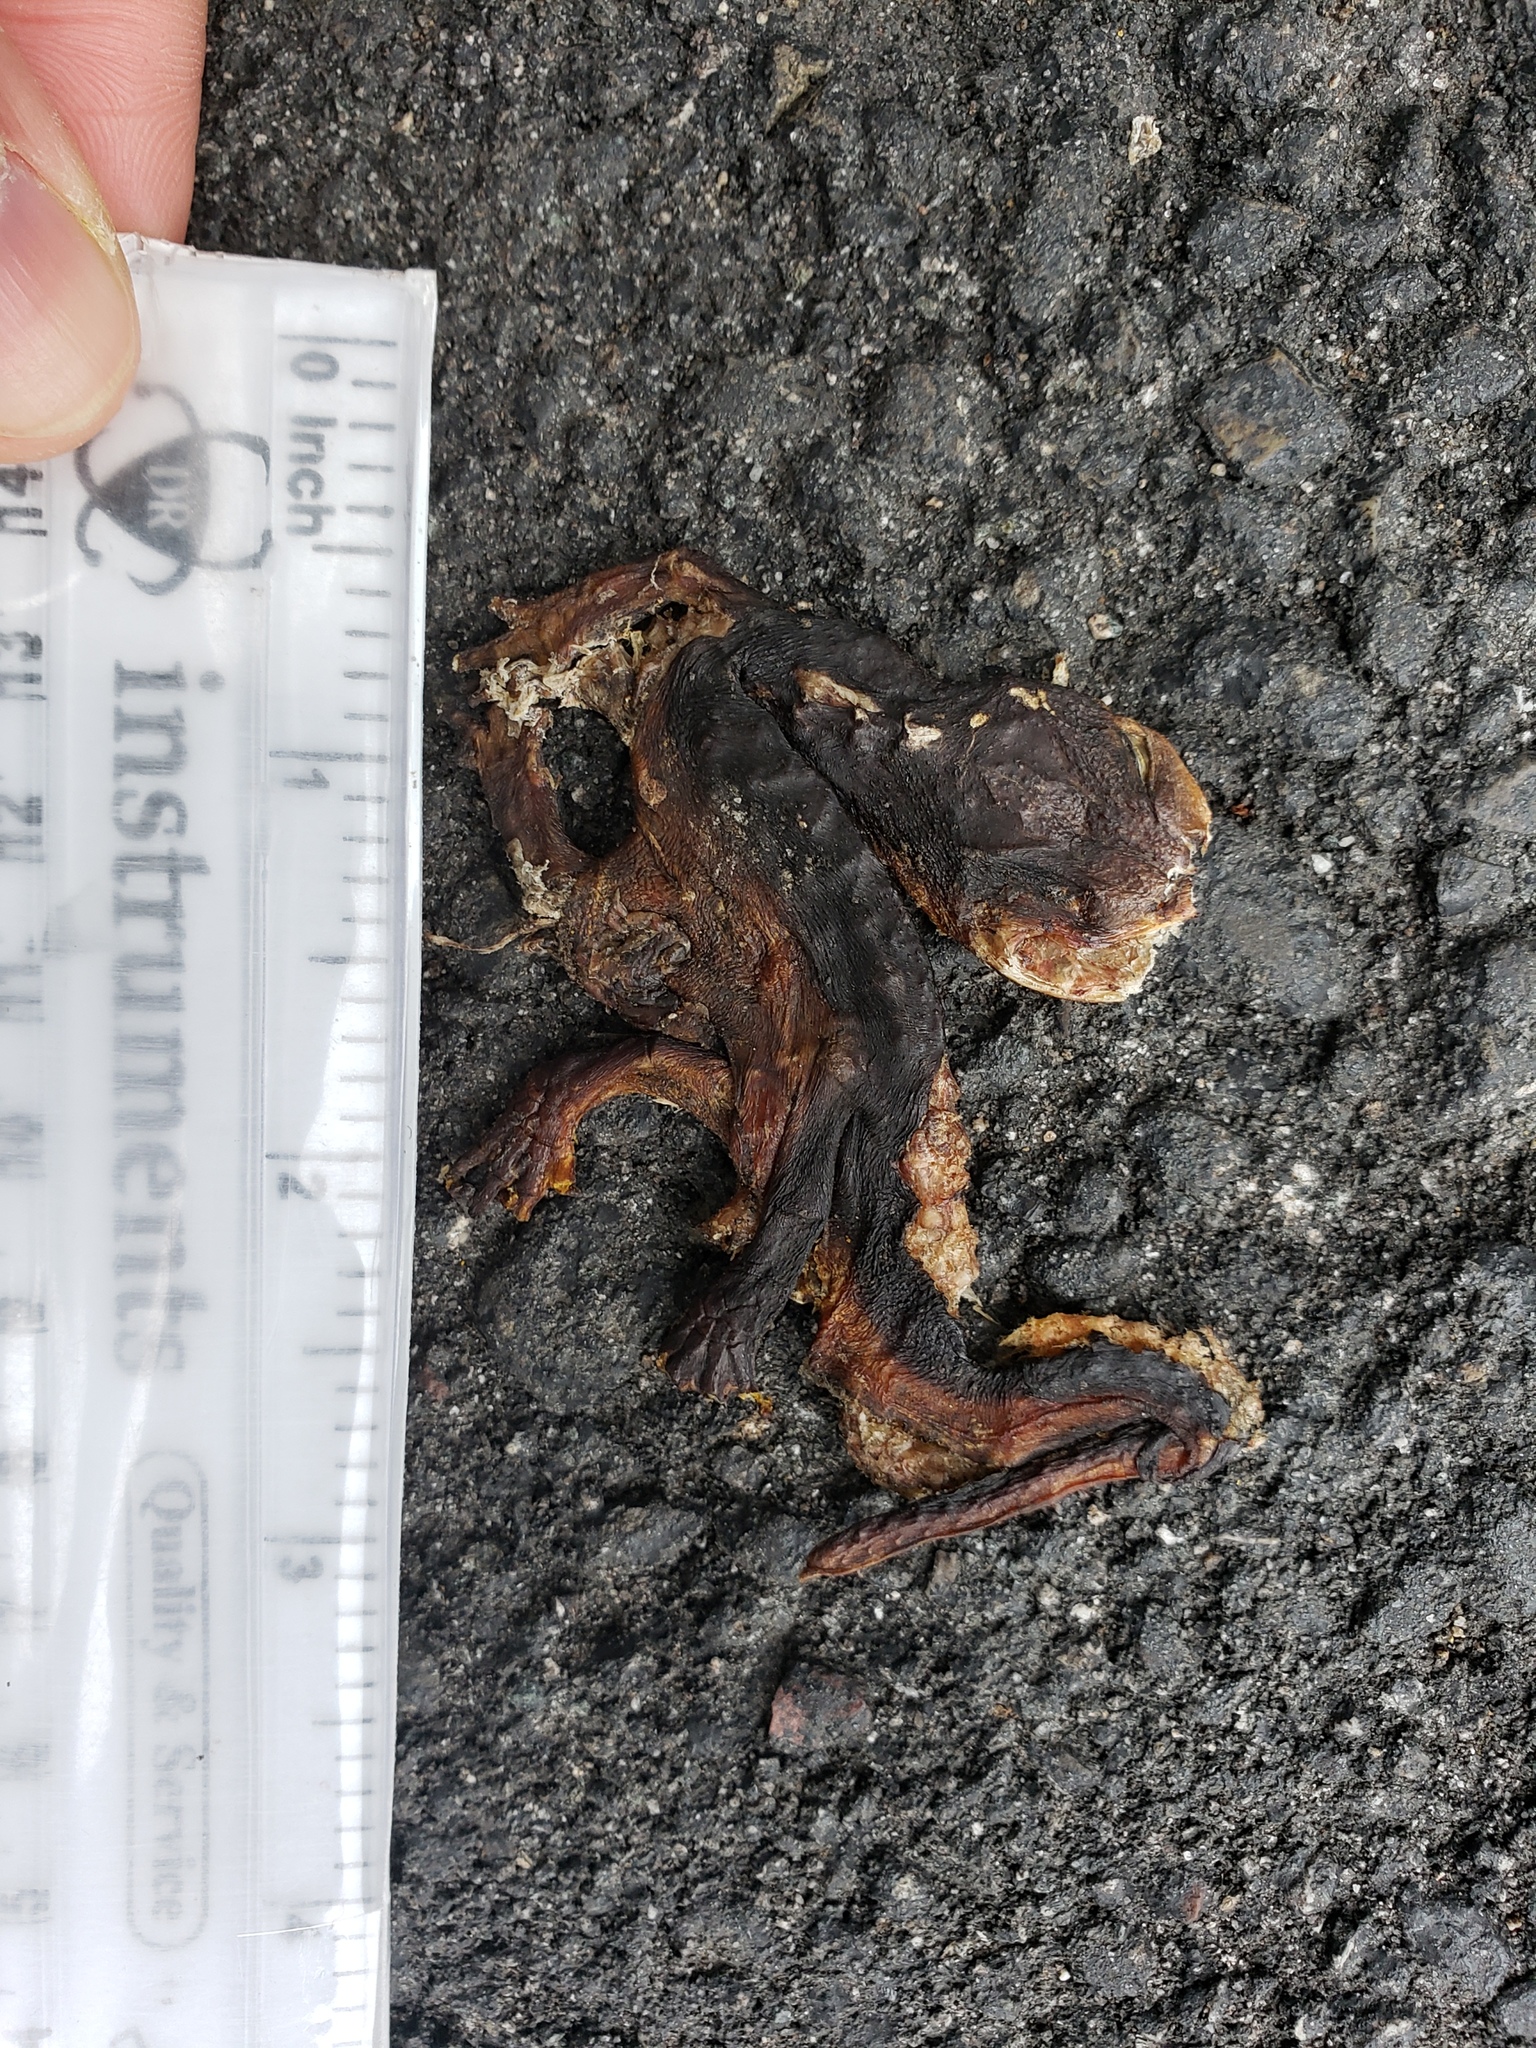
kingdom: Animalia
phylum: Chordata
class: Amphibia
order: Caudata
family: Salamandridae
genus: Taricha
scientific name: Taricha
